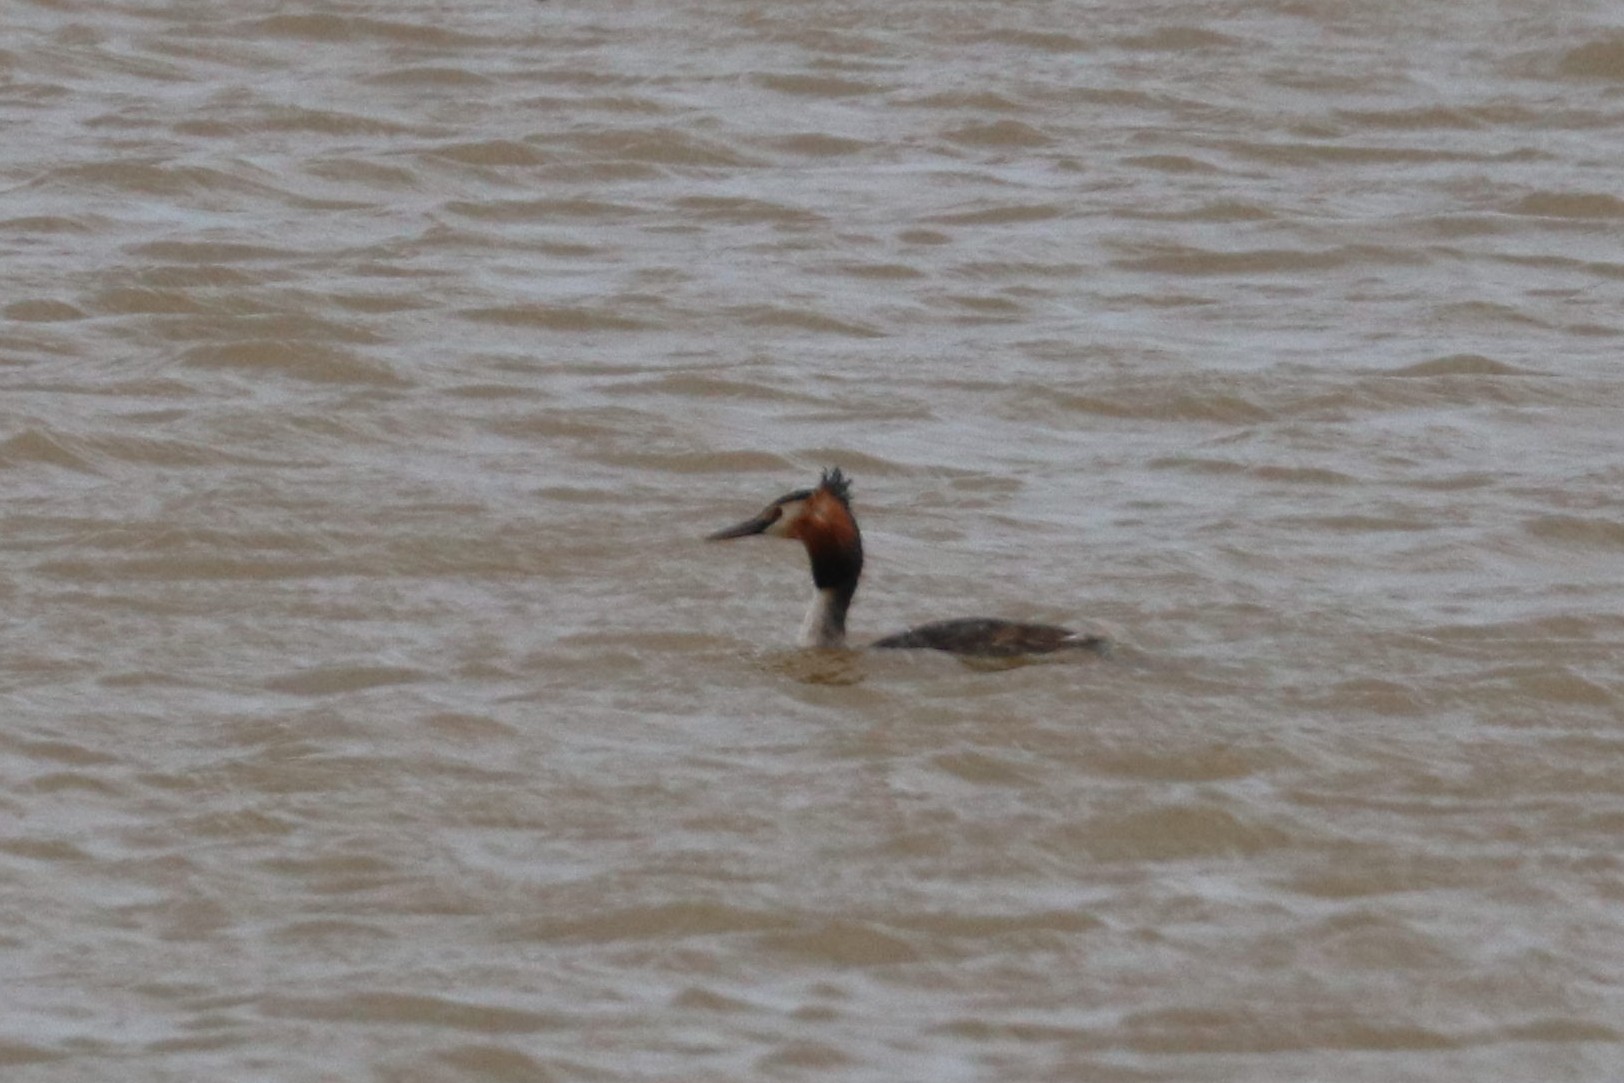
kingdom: Animalia
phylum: Chordata
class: Aves
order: Podicipediformes
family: Podicipedidae
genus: Podiceps
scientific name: Podiceps cristatus
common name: Great crested grebe
